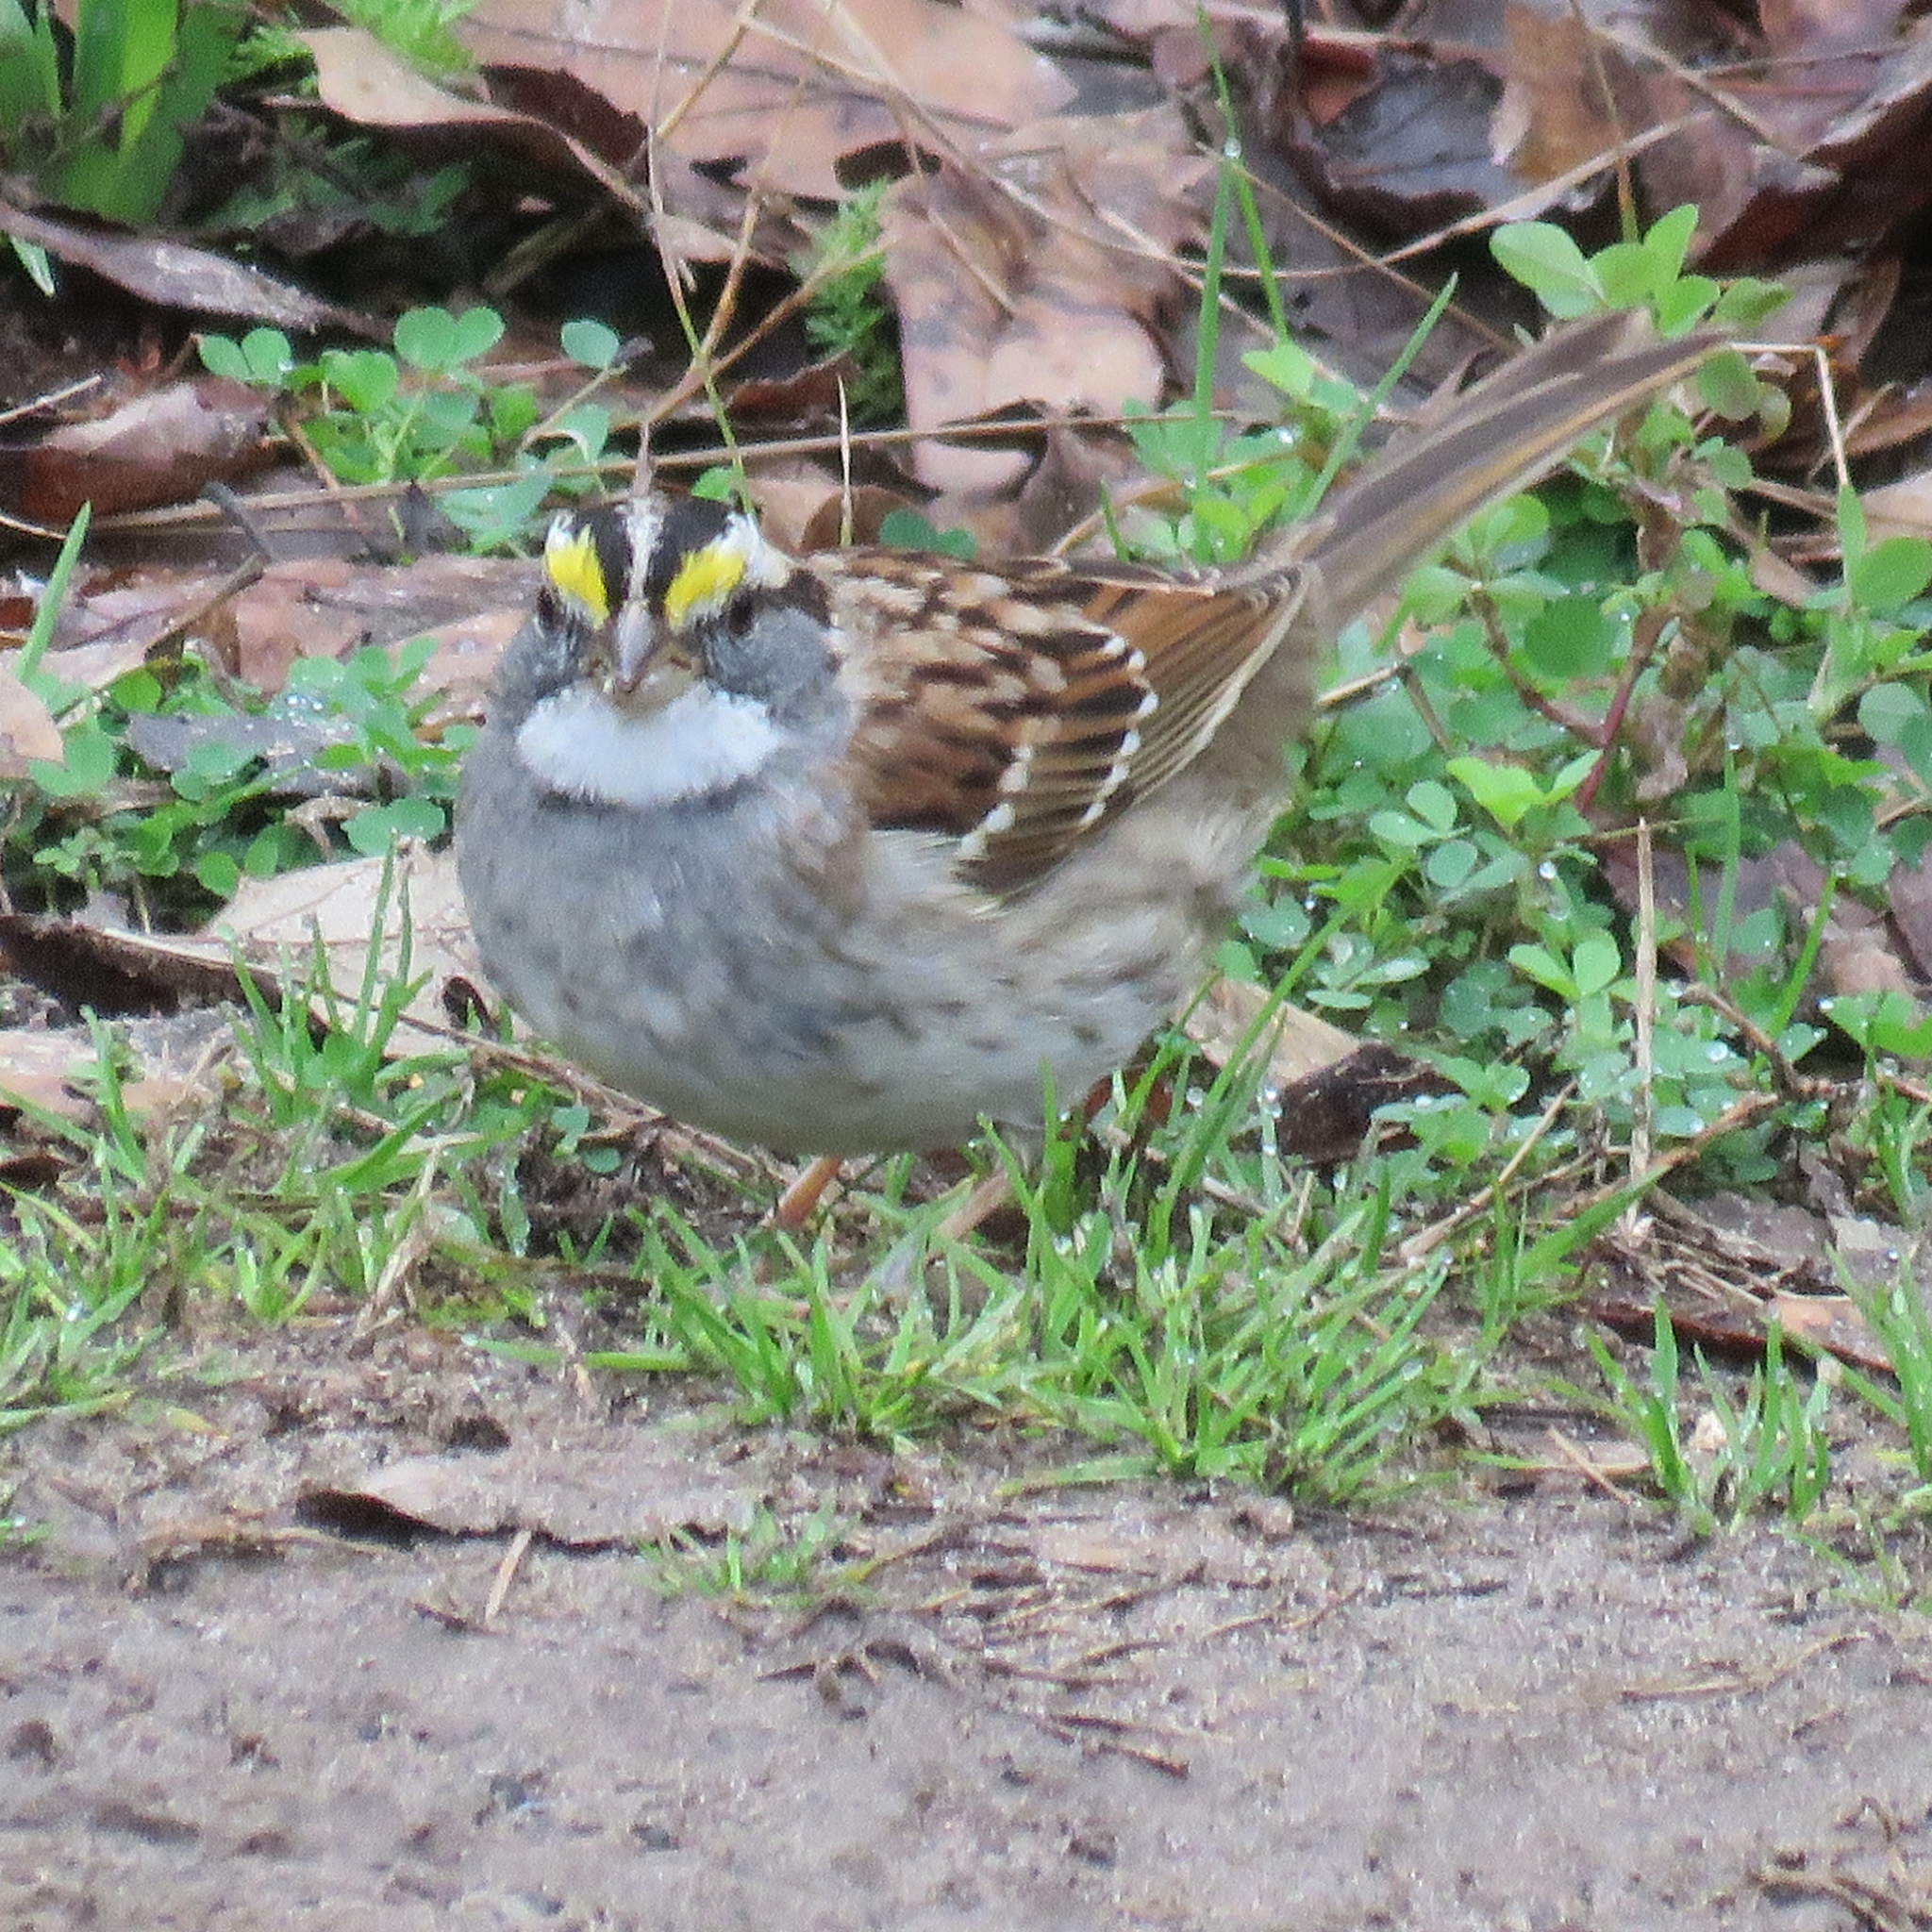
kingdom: Animalia
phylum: Chordata
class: Aves
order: Passeriformes
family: Passerellidae
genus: Zonotrichia
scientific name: Zonotrichia albicollis
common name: White-throated sparrow
